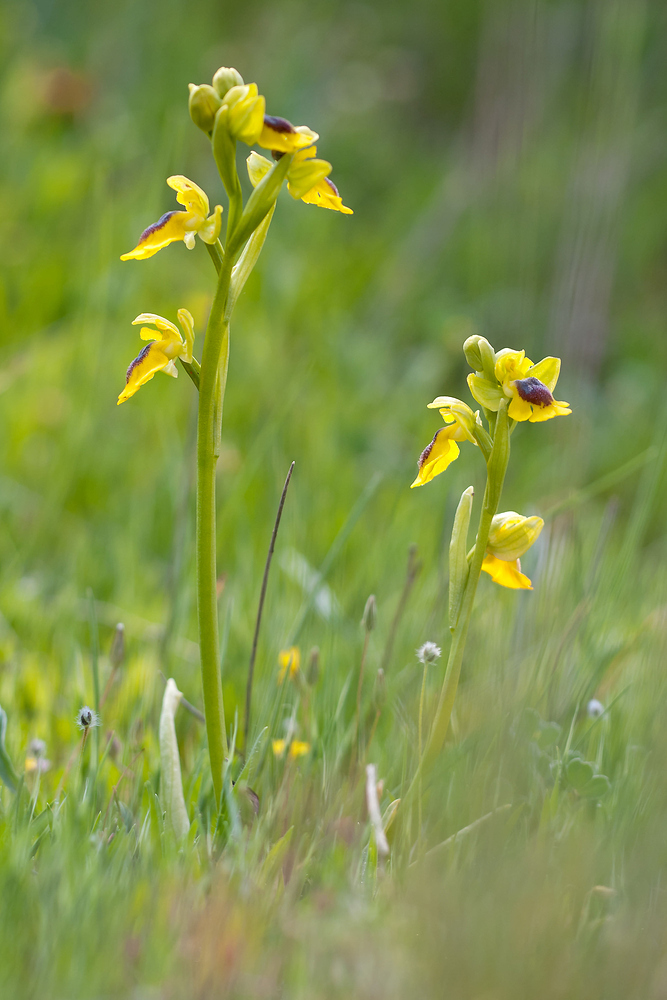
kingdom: Plantae
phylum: Tracheophyta
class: Liliopsida
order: Asparagales
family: Orchidaceae
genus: Ophrys
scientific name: Ophrys lutea
